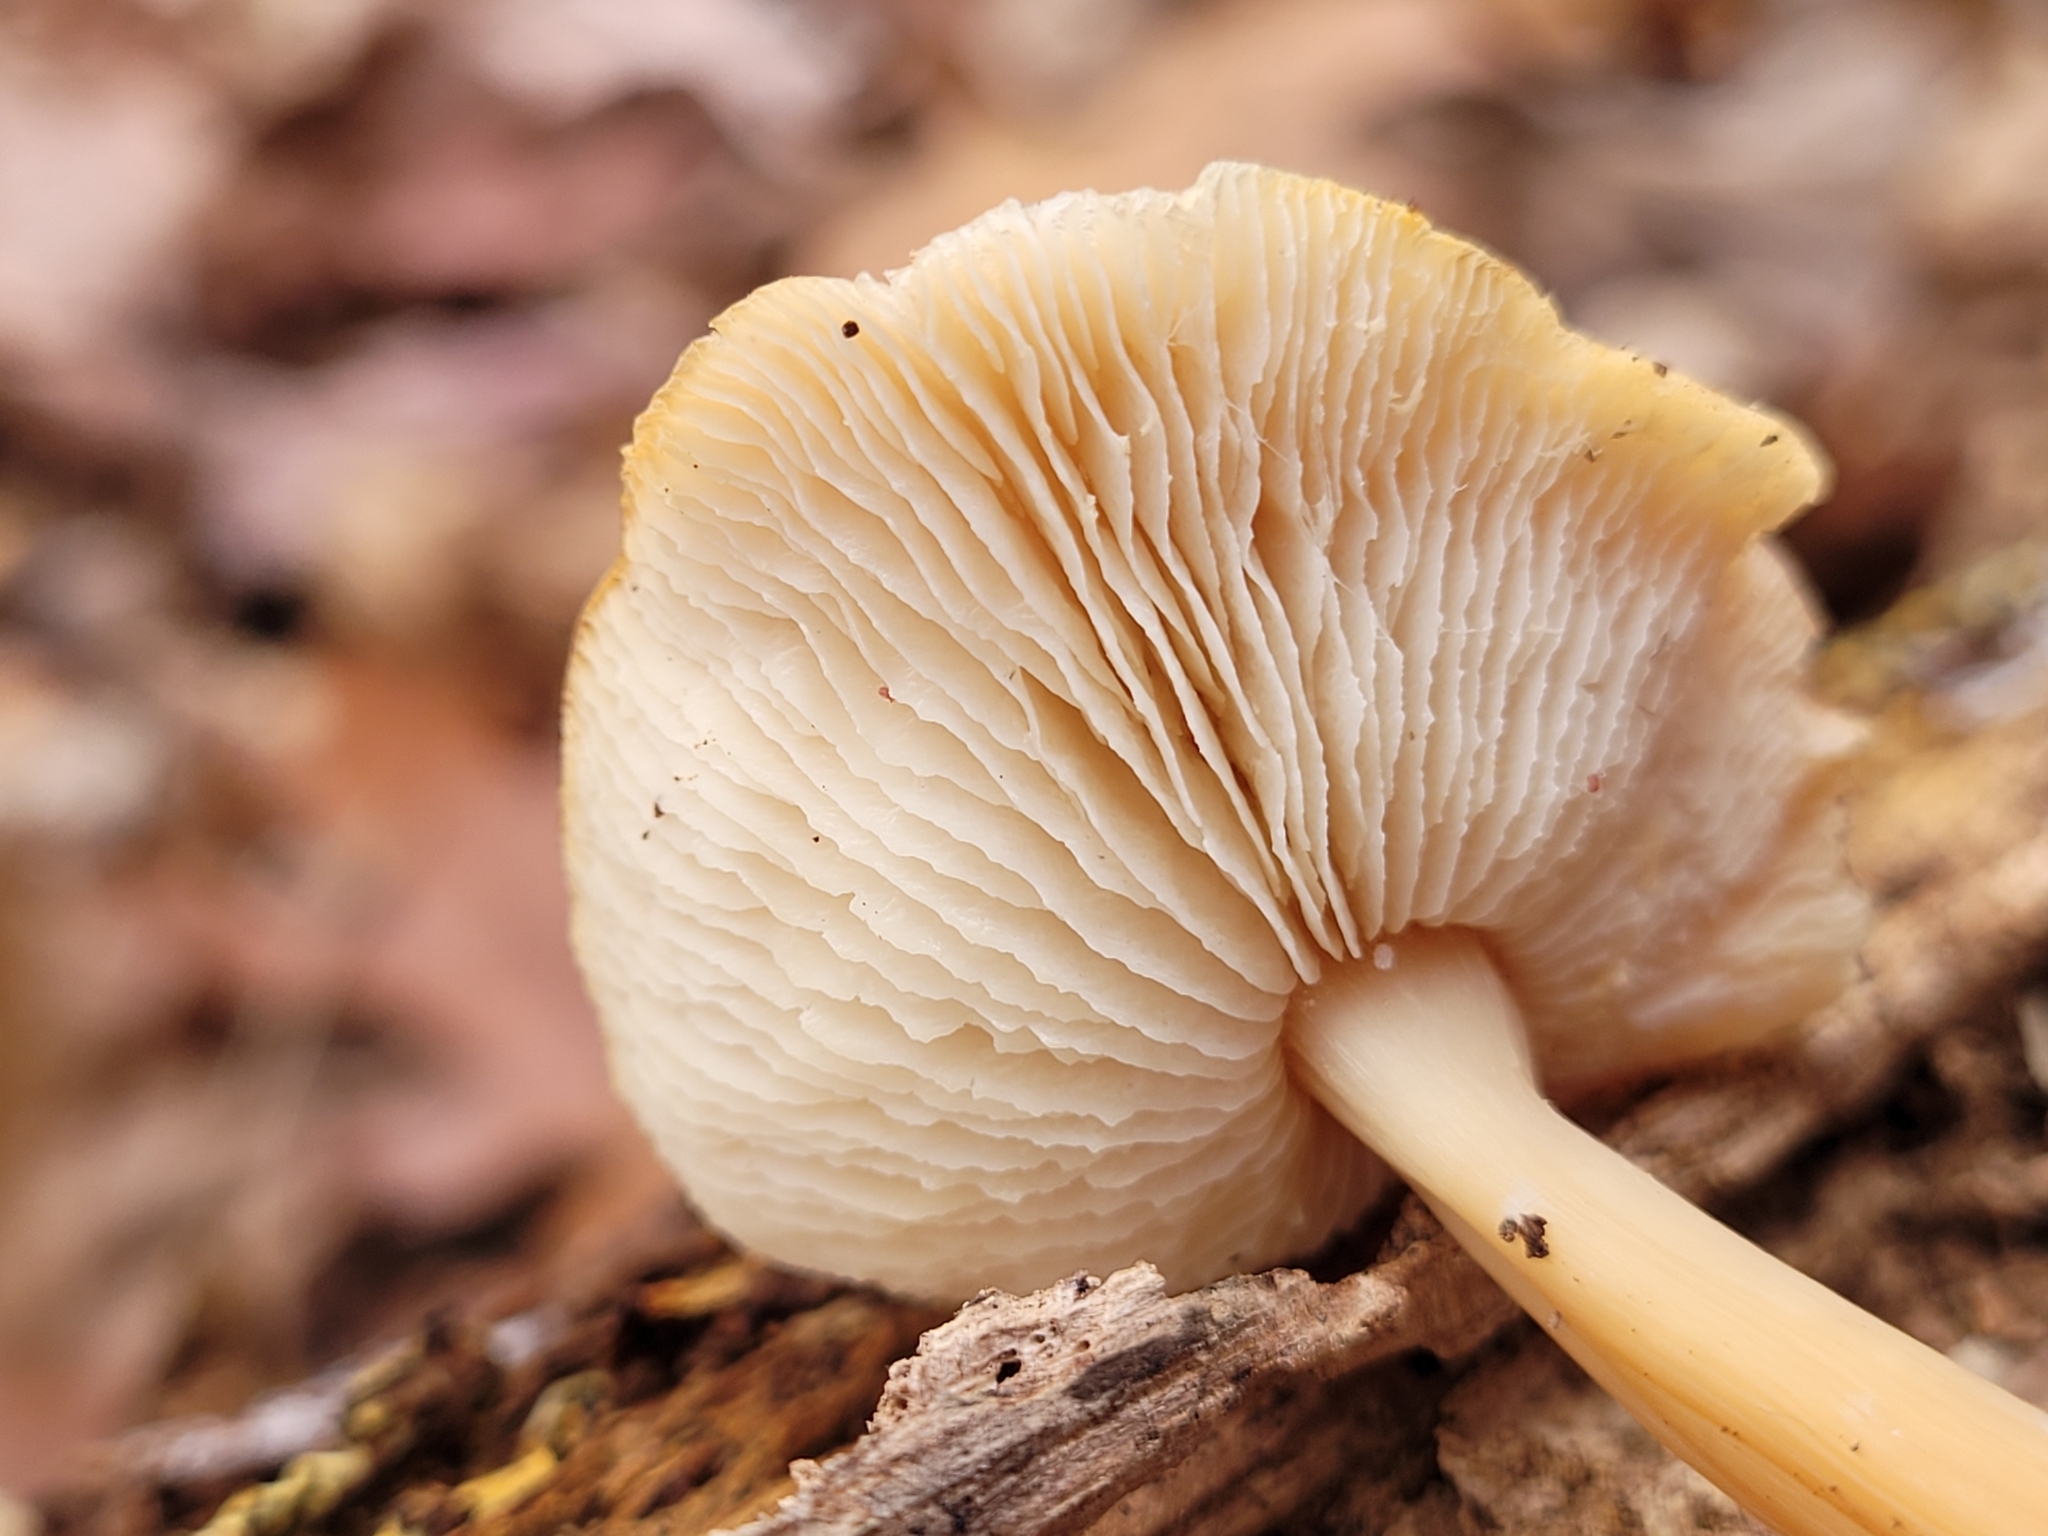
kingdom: Fungi
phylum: Basidiomycota
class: Agaricomycetes
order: Agaricales
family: Omphalotaceae
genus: Gymnopus
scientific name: Gymnopus dryophilus
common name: Penny top
